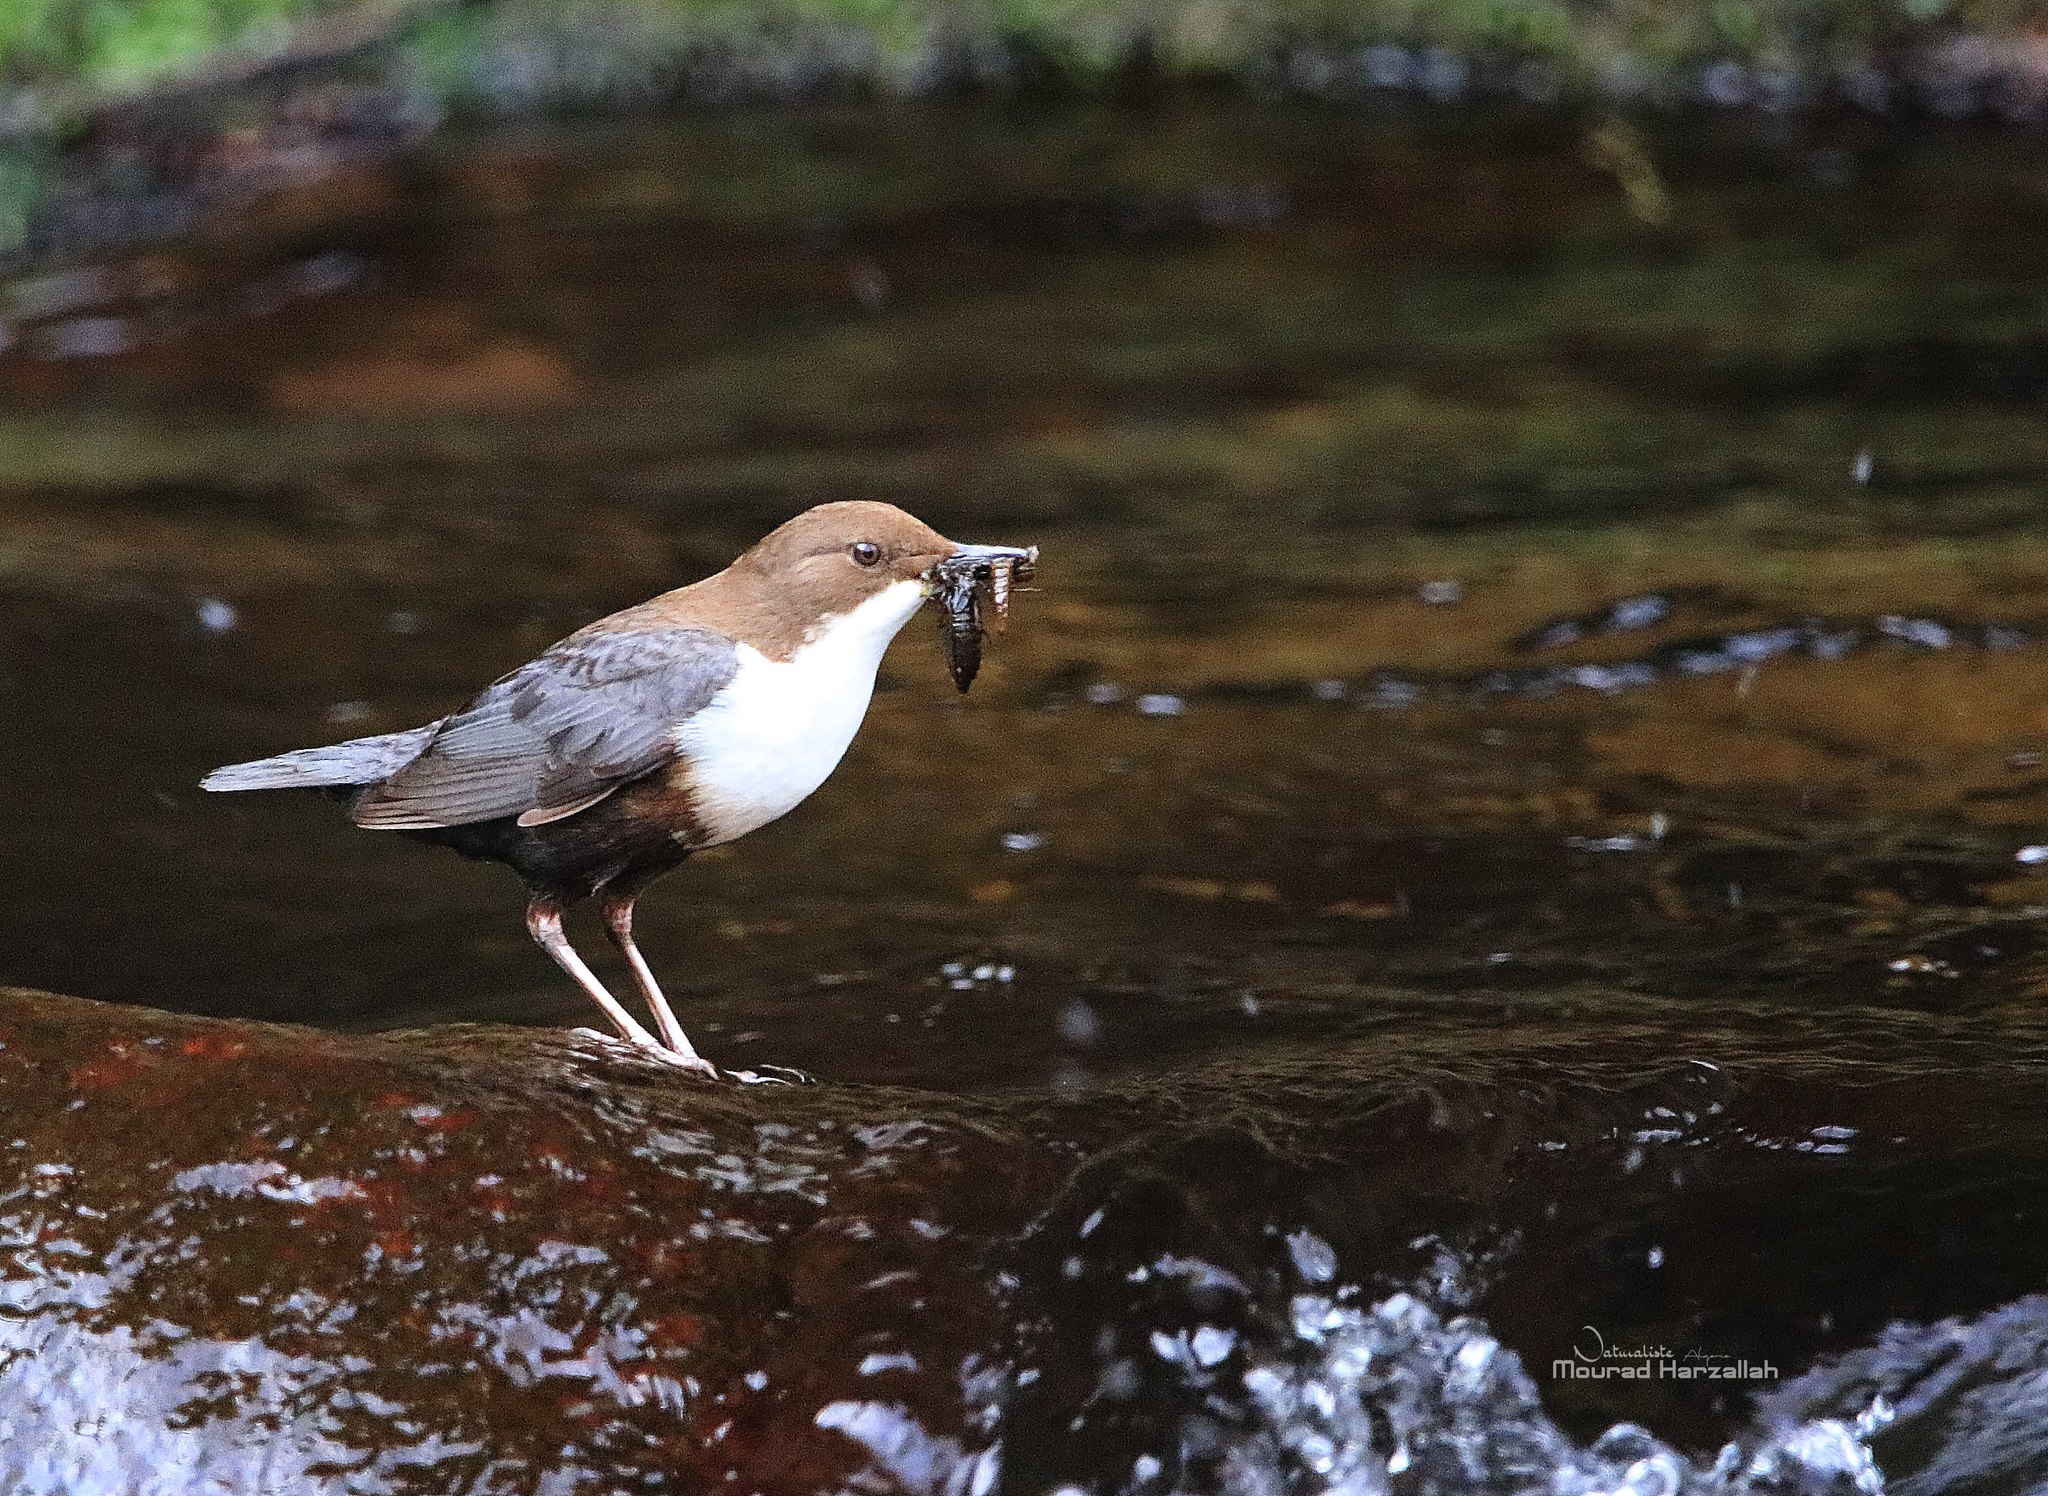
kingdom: Animalia
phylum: Chordata
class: Aves
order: Passeriformes
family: Cinclidae
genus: Cinclus
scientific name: Cinclus cinclus
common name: White-throated dipper
